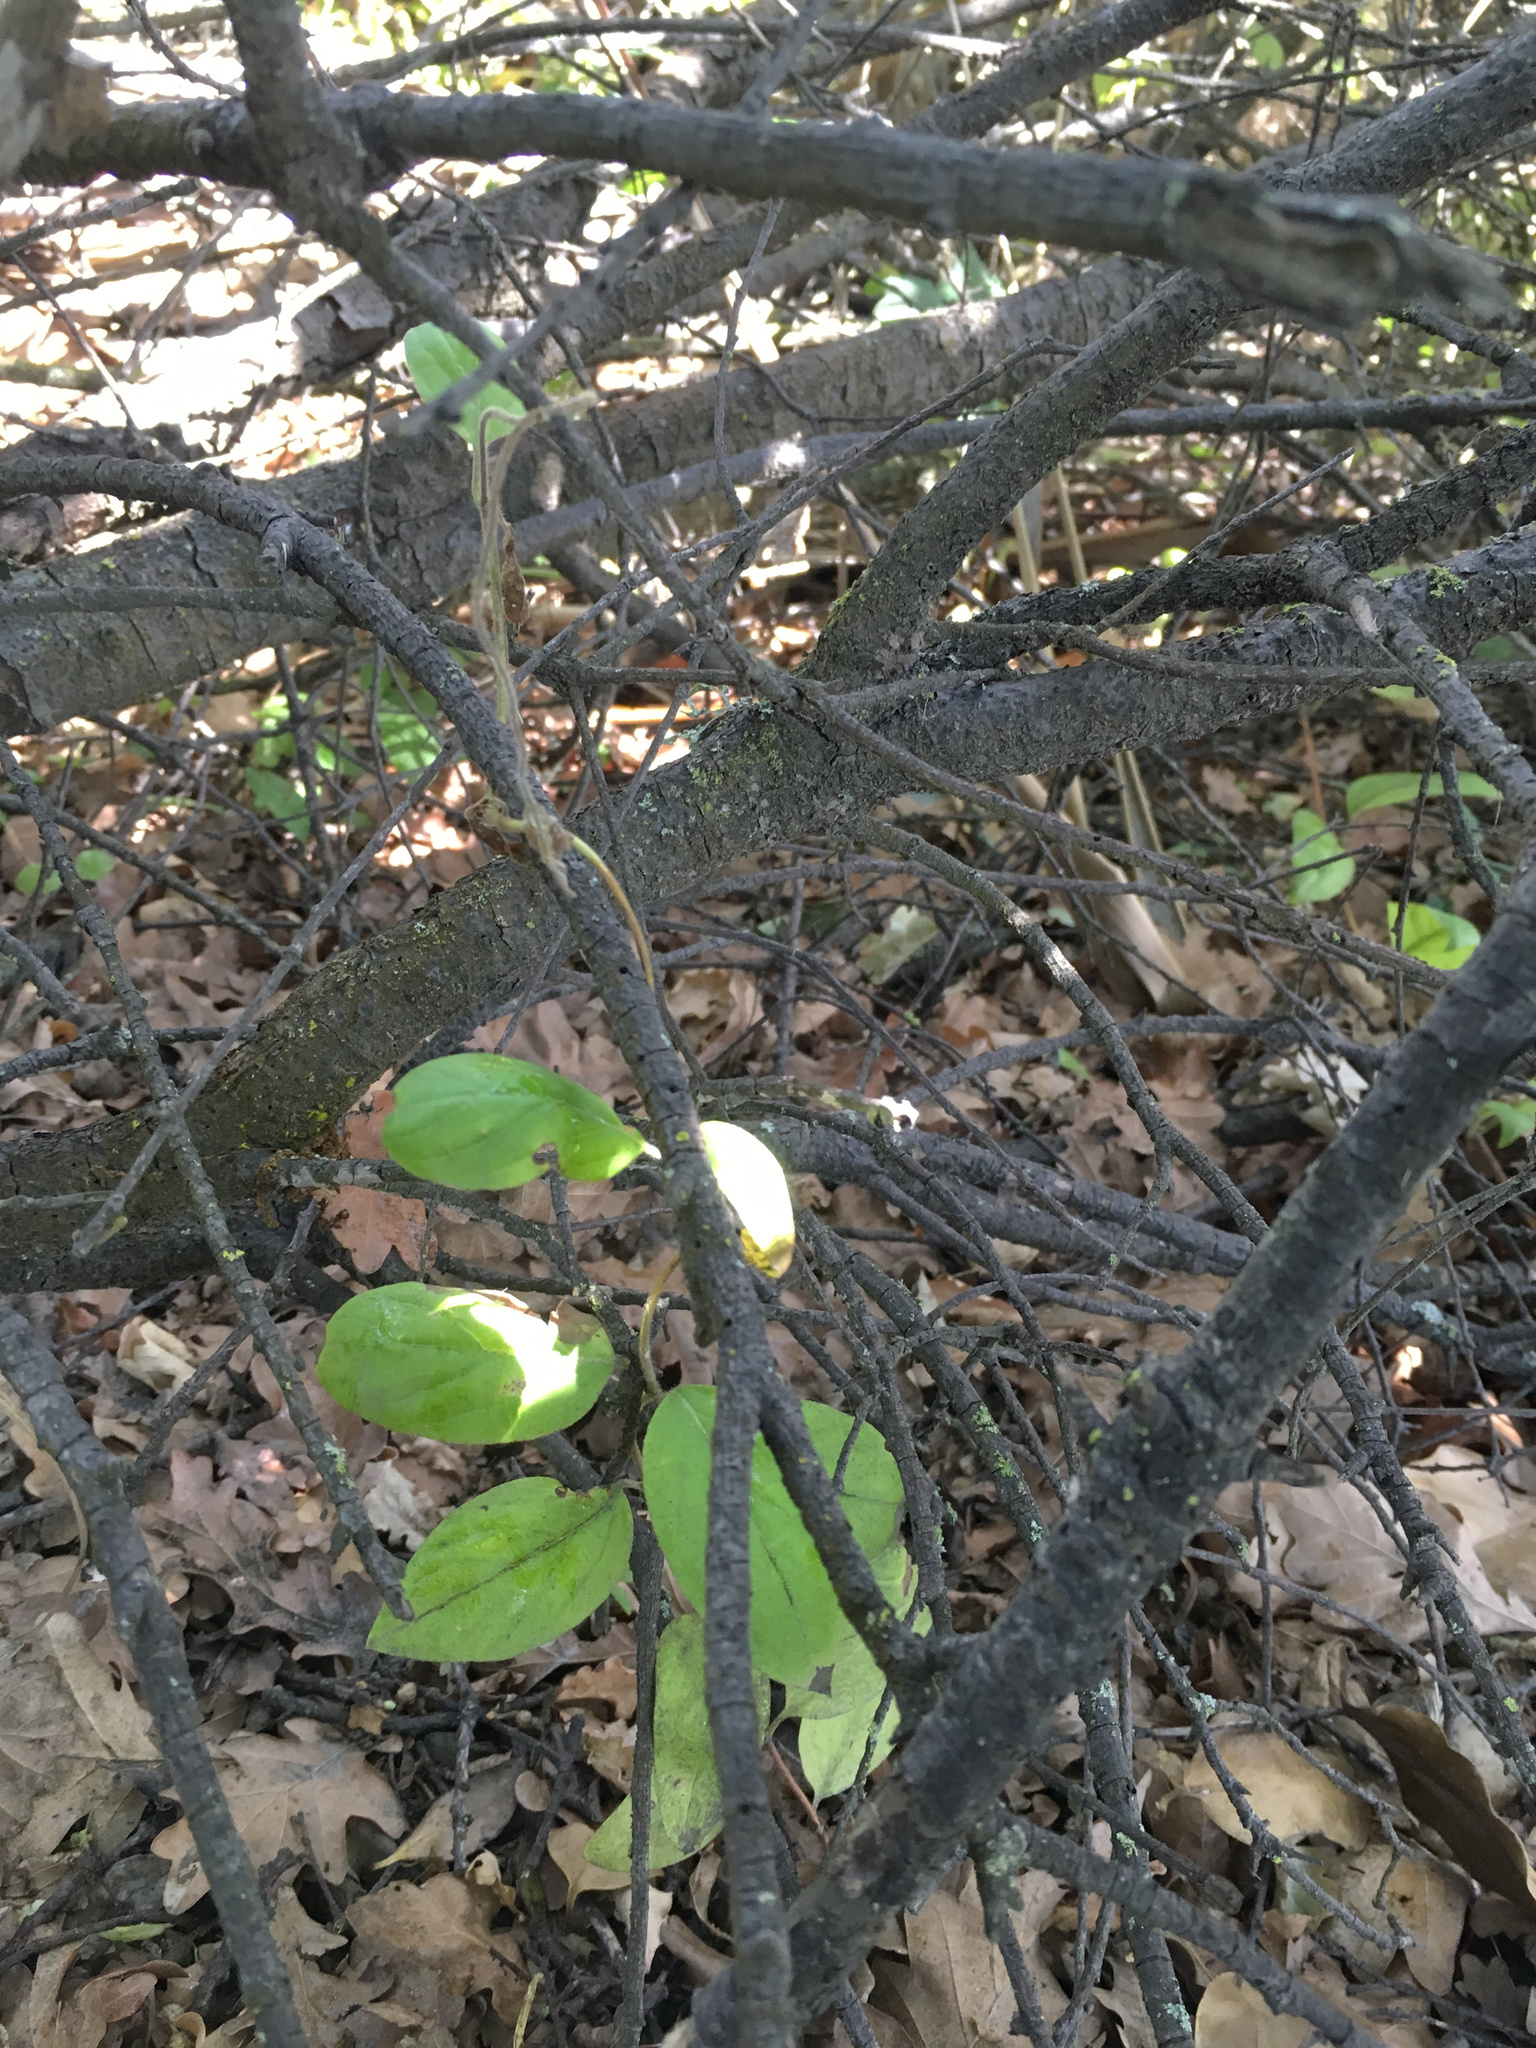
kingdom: Plantae
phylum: Tracheophyta
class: Magnoliopsida
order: Dipsacales
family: Caprifoliaceae
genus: Lonicera
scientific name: Lonicera japonica
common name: Japanese honeysuckle
